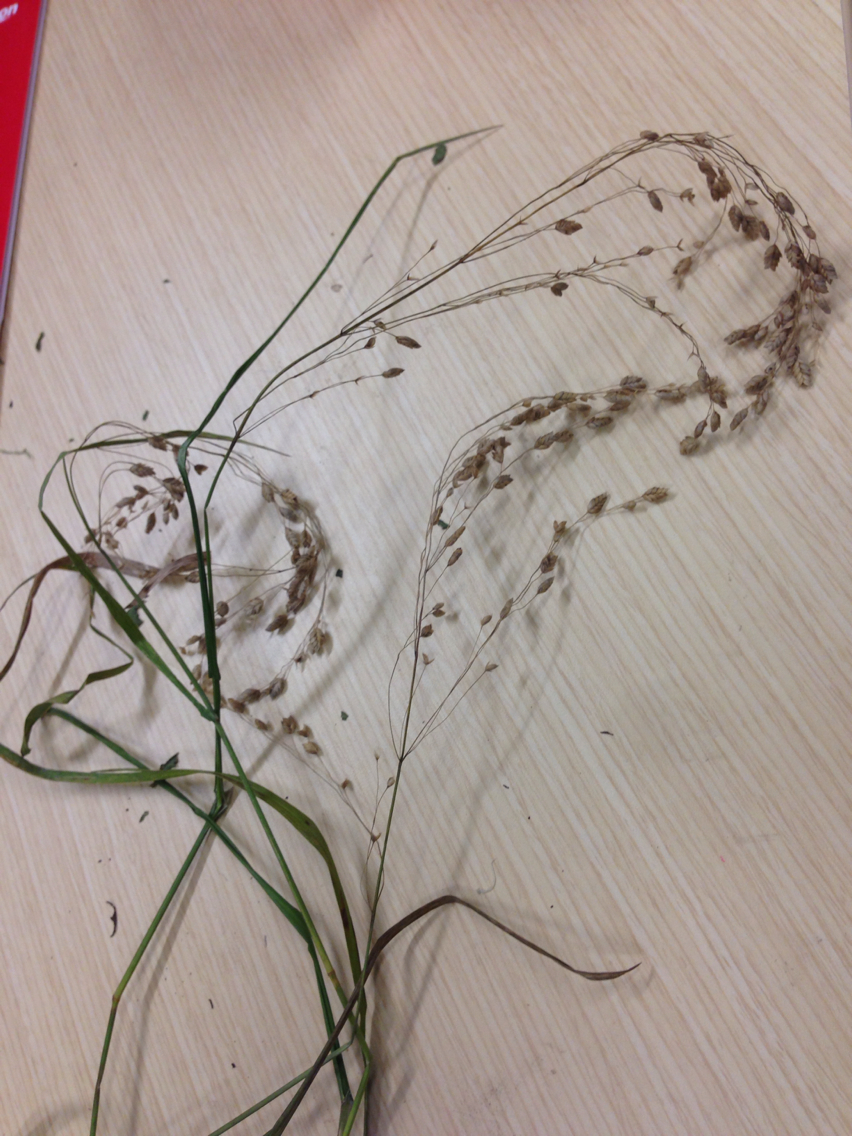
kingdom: Plantae
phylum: Tracheophyta
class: Liliopsida
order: Poales
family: Poaceae
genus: Glyceria
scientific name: Glyceria canadensis
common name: Canada mannagrass
